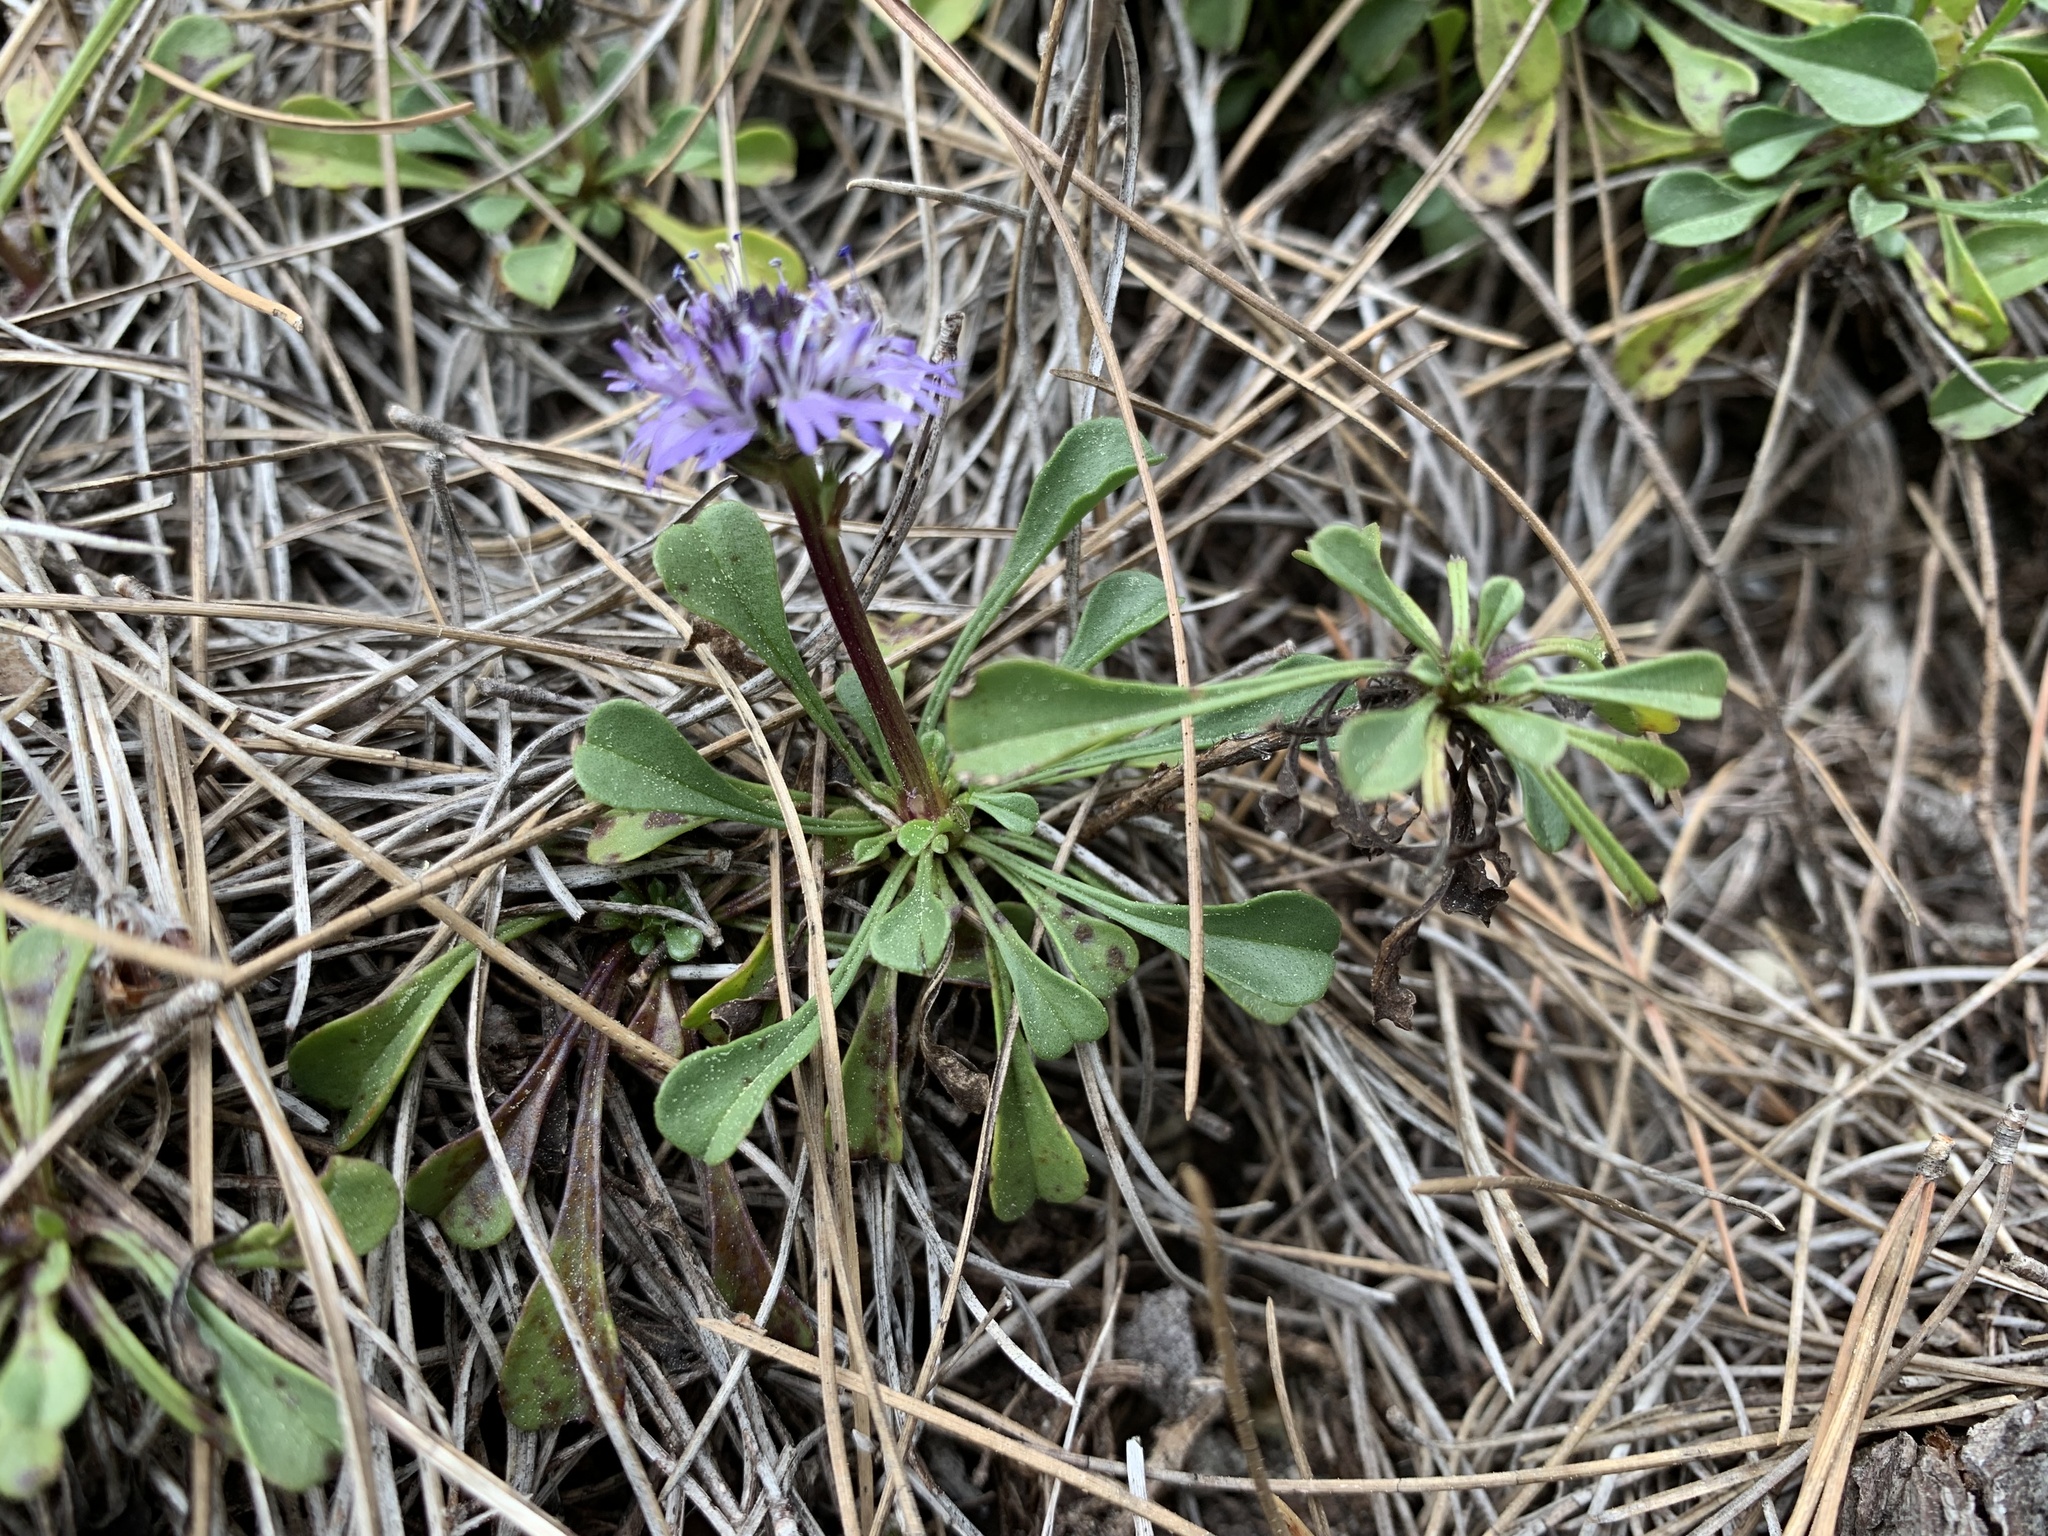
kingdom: Plantae
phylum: Tracheophyta
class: Magnoliopsida
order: Lamiales
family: Plantaginaceae
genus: Globularia
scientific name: Globularia cordifolia
